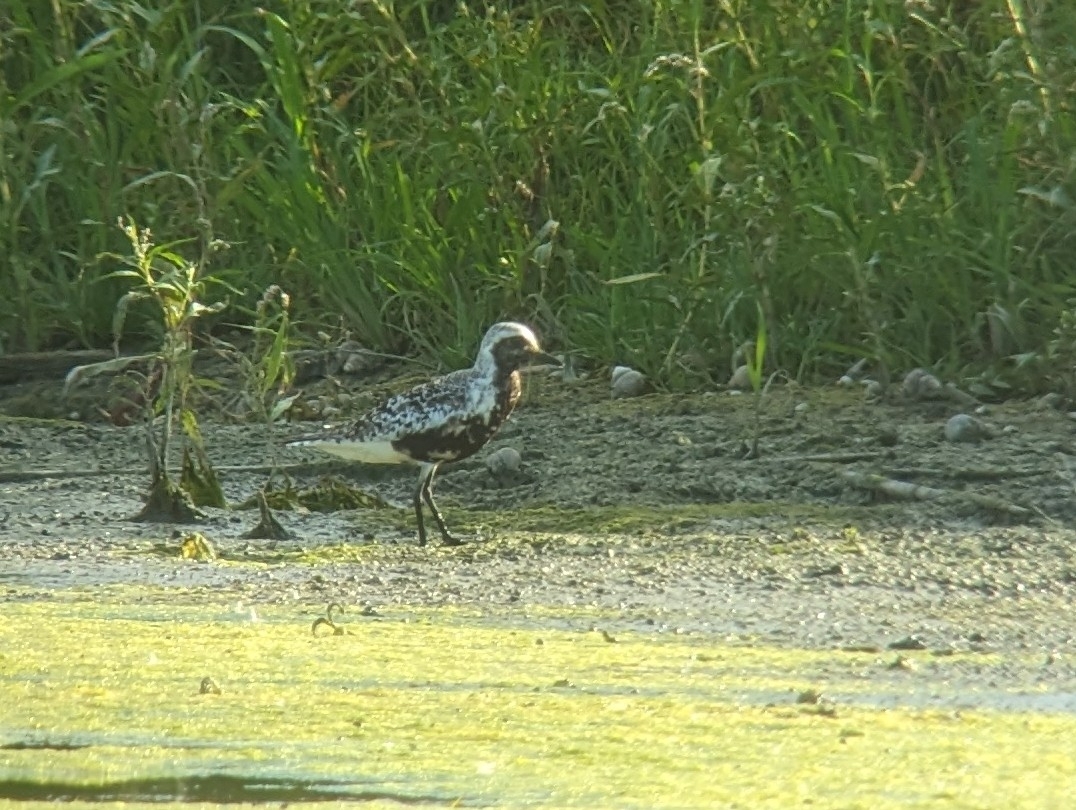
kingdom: Animalia
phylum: Chordata
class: Aves
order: Charadriiformes
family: Charadriidae
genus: Pluvialis
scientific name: Pluvialis squatarola
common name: Grey plover
